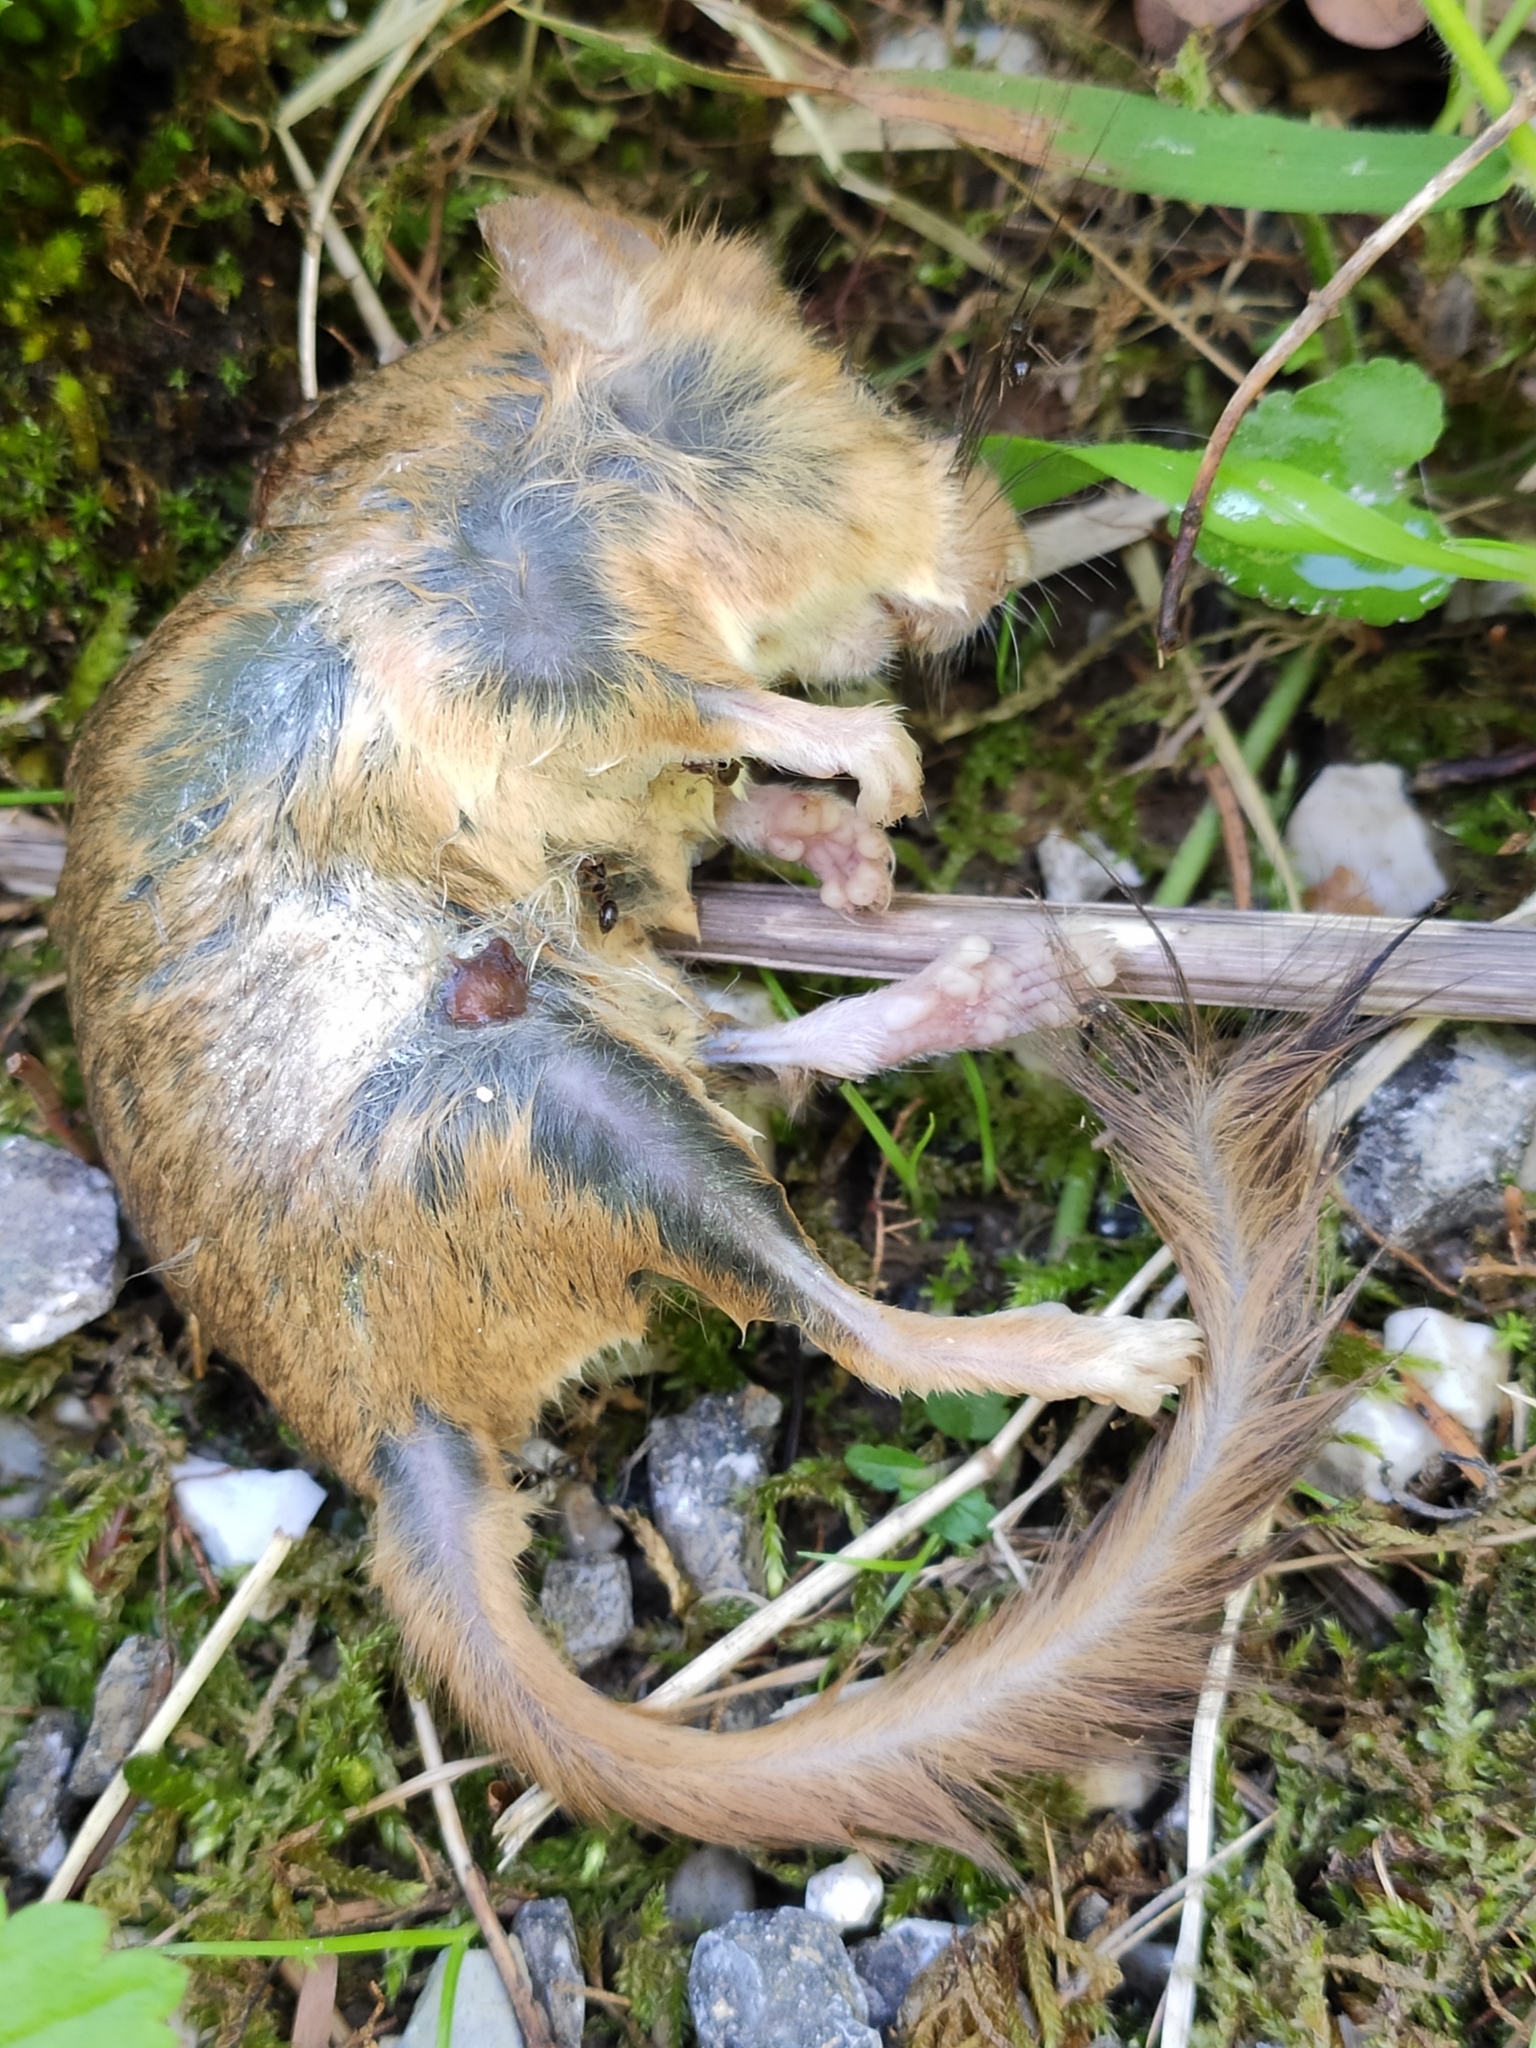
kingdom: Animalia
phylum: Chordata
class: Mammalia
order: Rodentia
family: Gliridae
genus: Muscardinus
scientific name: Muscardinus avellanarius
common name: Hazel dormouse
